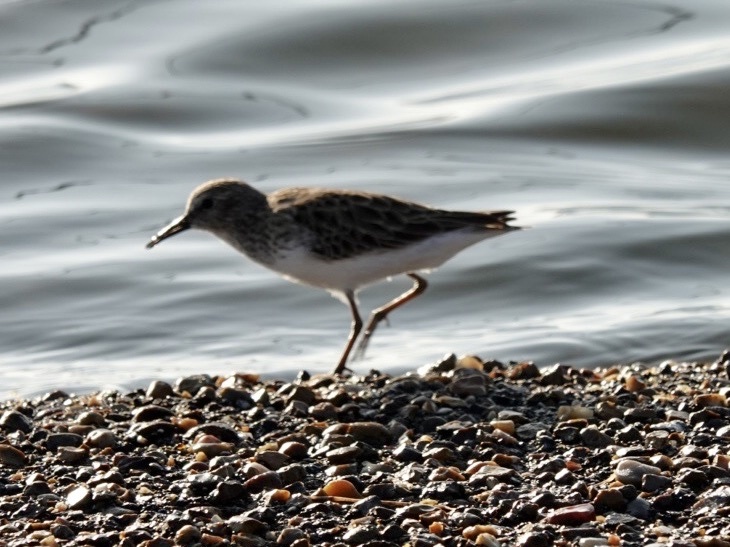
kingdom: Animalia
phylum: Chordata
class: Aves
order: Charadriiformes
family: Scolopacidae
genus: Calidris
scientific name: Calidris minutilla
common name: Least sandpiper
